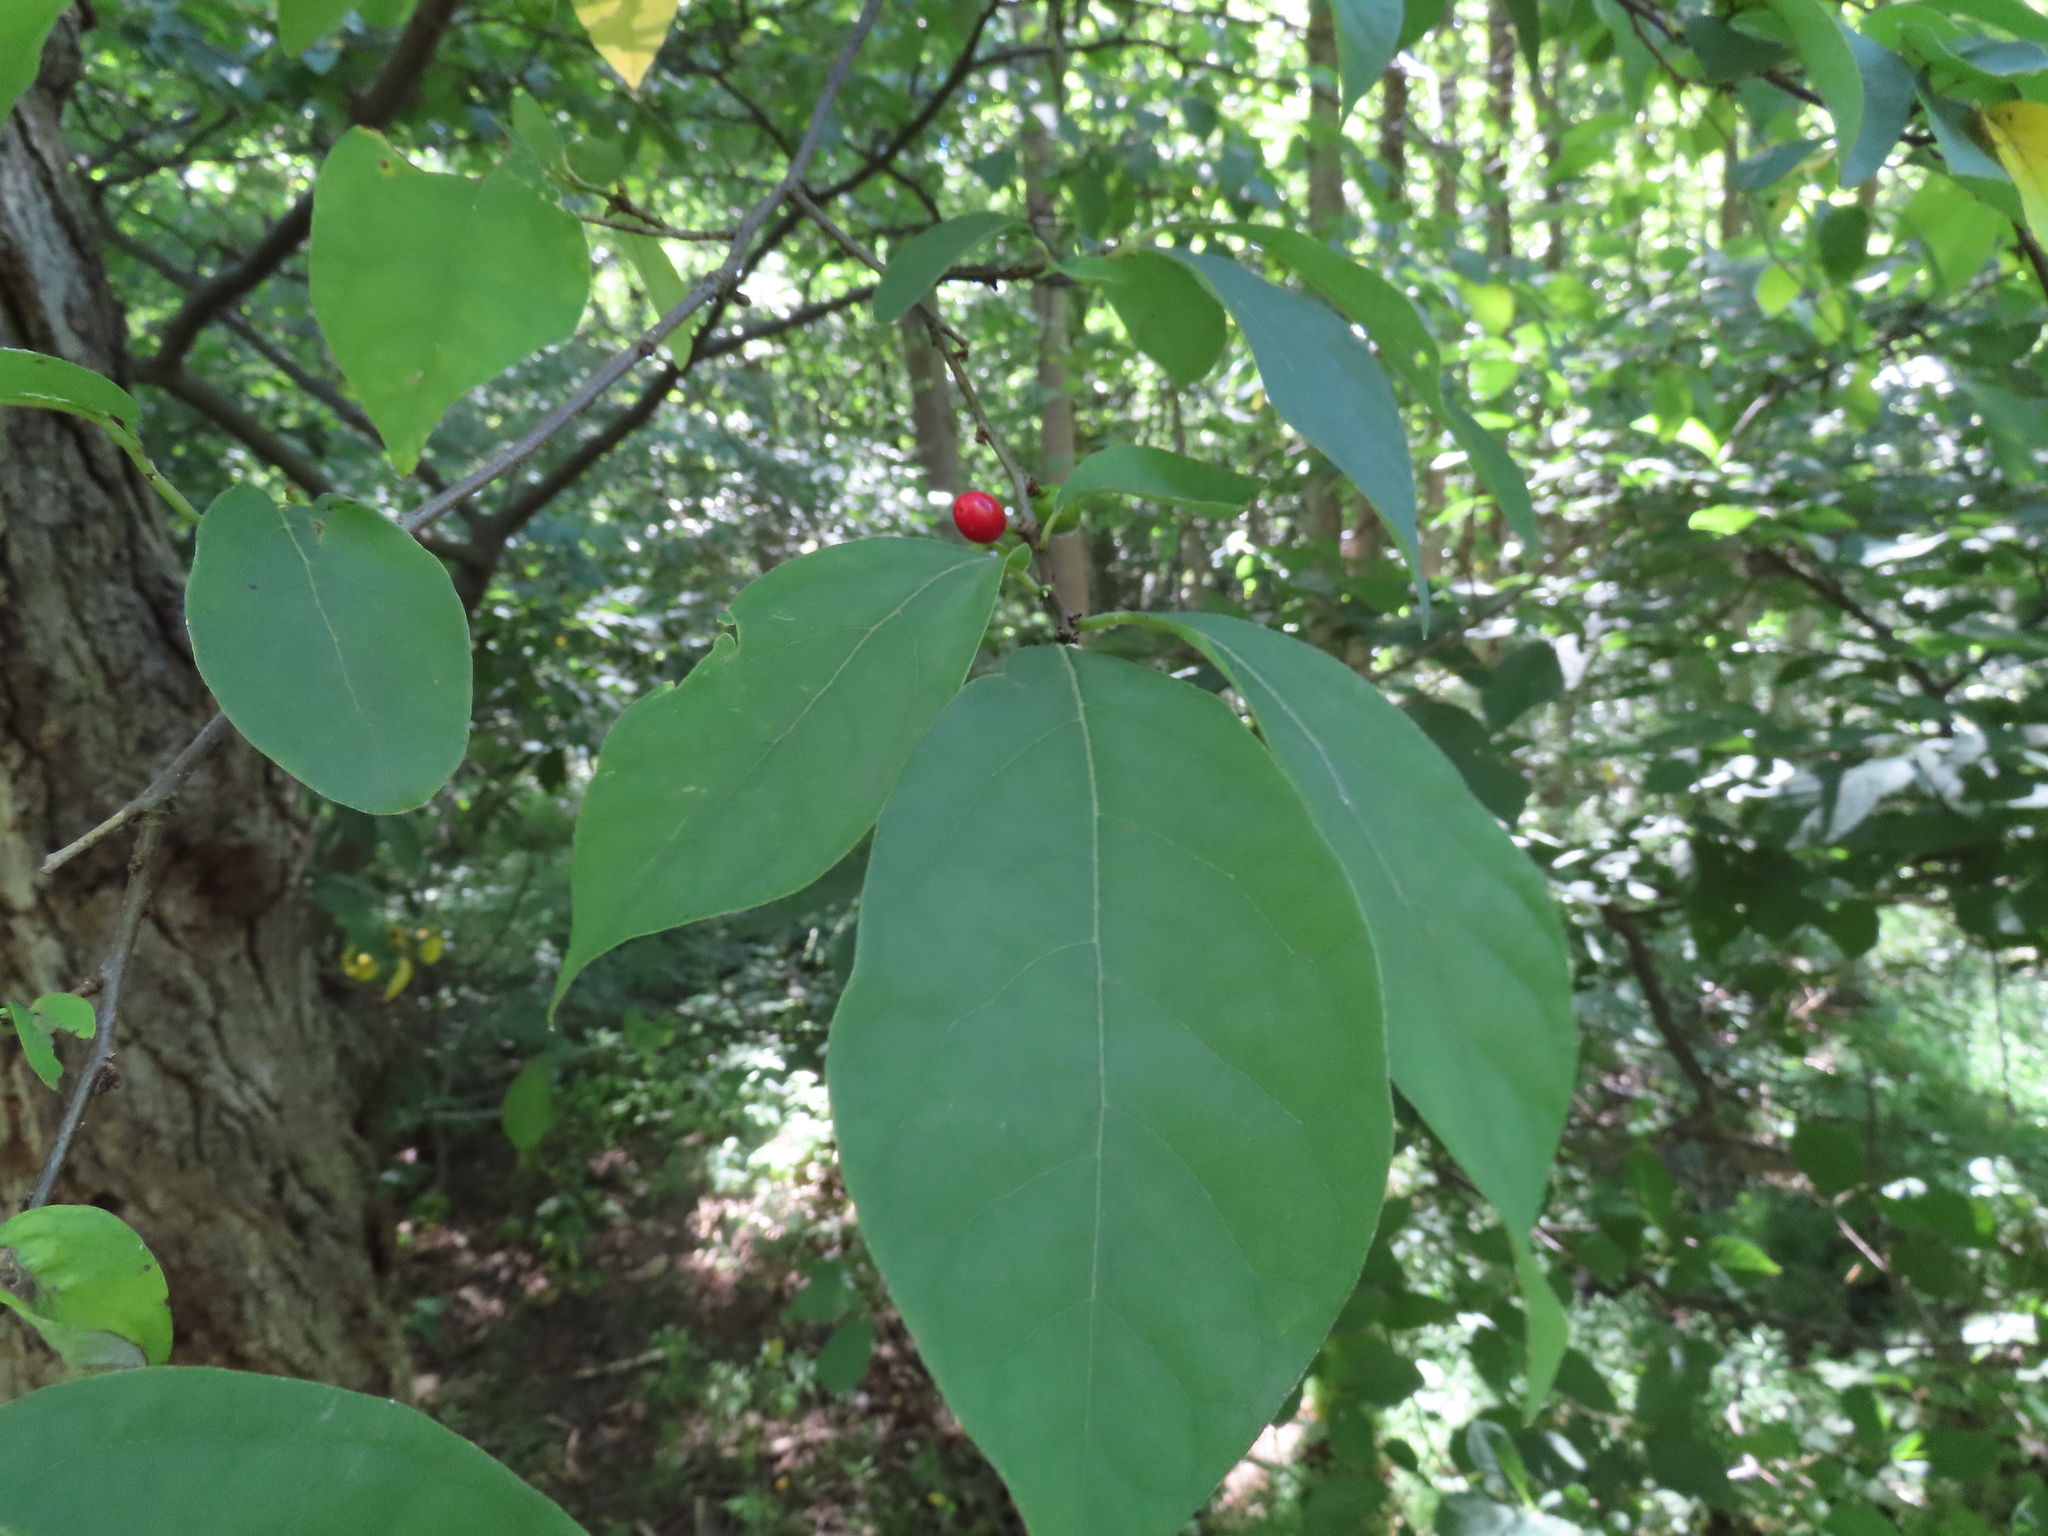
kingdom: Plantae
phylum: Tracheophyta
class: Magnoliopsida
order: Laurales
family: Lauraceae
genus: Lindera
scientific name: Lindera benzoin
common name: Spicebush
